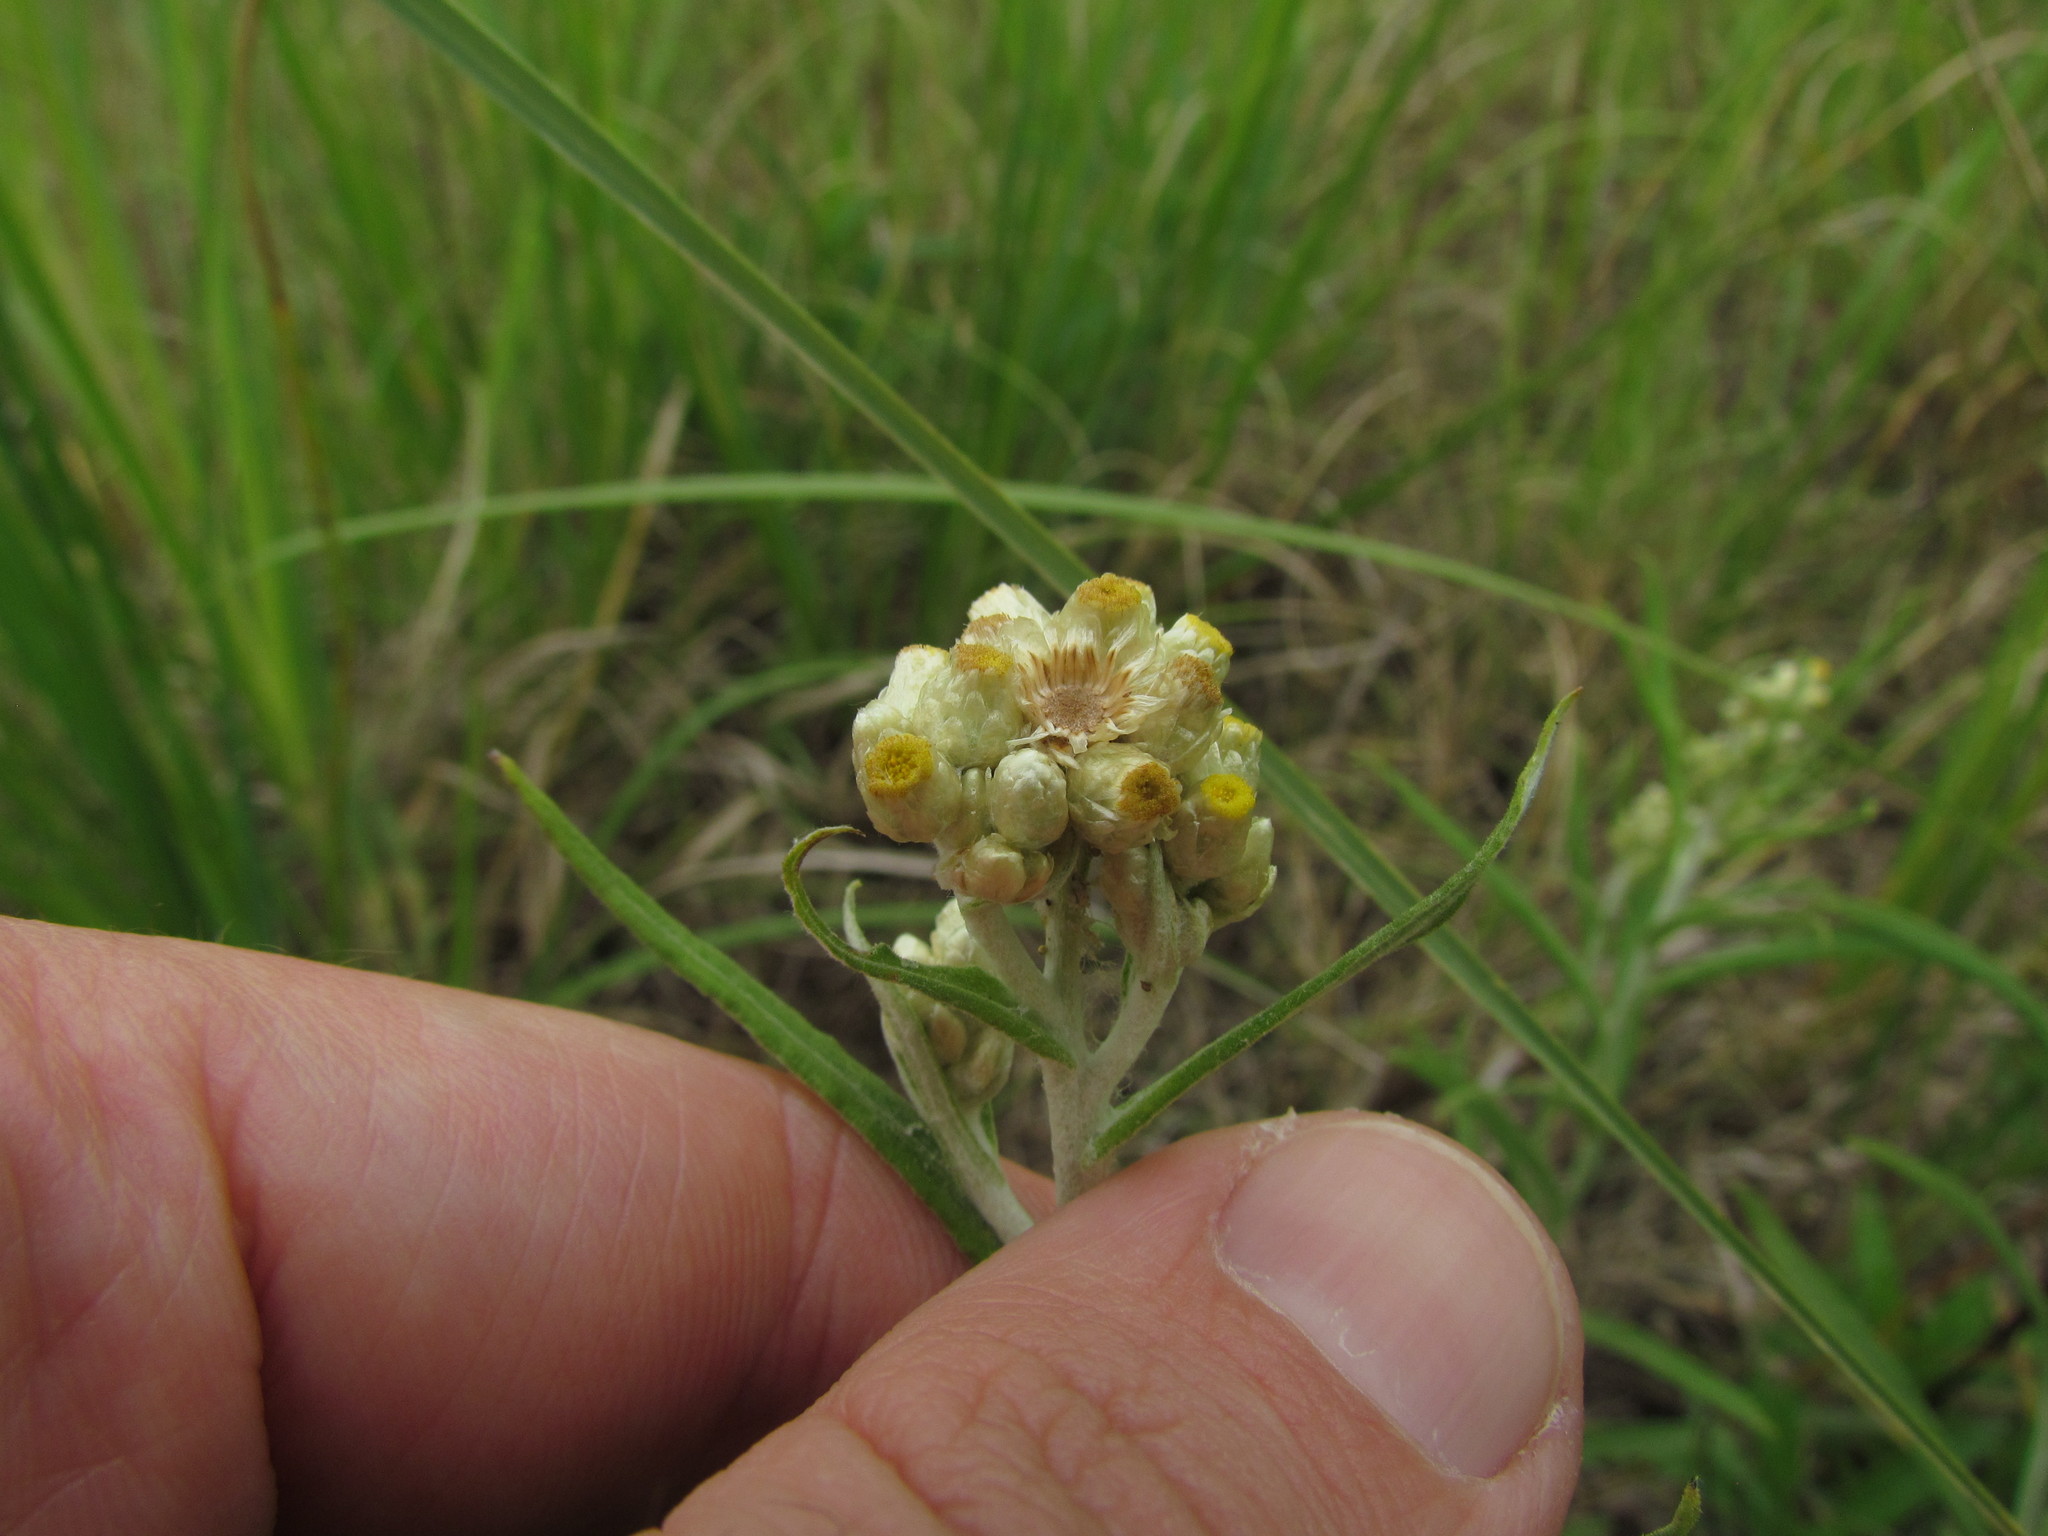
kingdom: Plantae
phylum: Tracheophyta
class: Magnoliopsida
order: Asterales
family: Asteraceae
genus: Pseudognaphalium
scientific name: Pseudognaphalium gaudichaudianum
